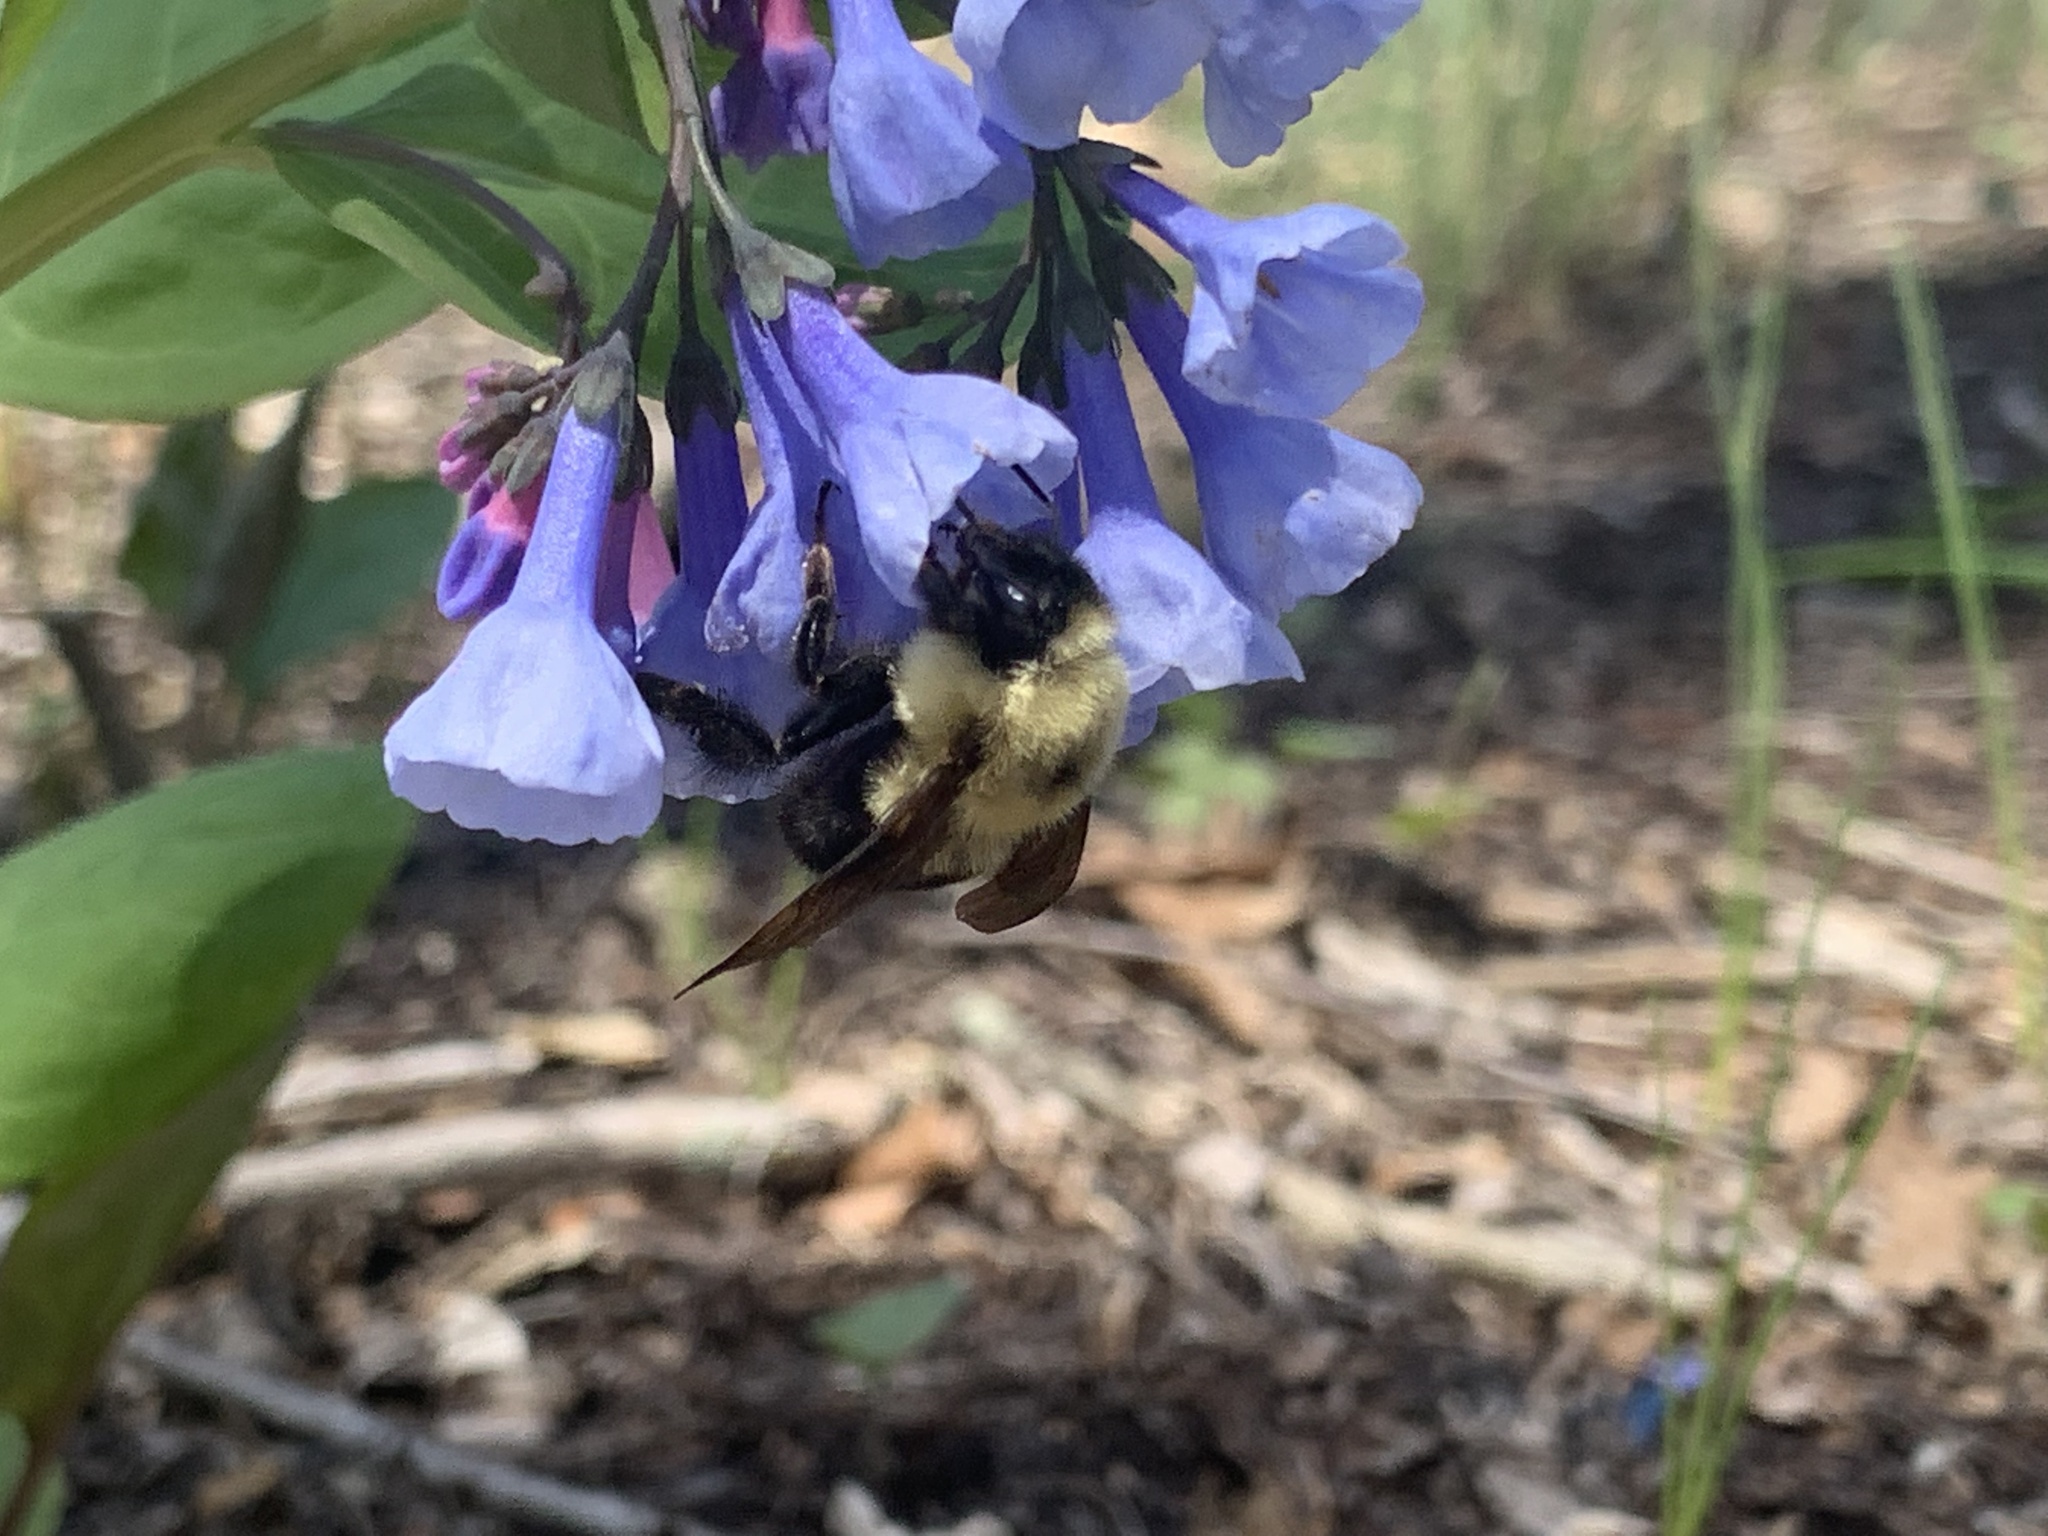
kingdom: Animalia
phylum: Arthropoda
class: Insecta
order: Hymenoptera
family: Apidae
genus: Bombus
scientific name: Bombus bimaculatus
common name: Two-spotted bumble bee
